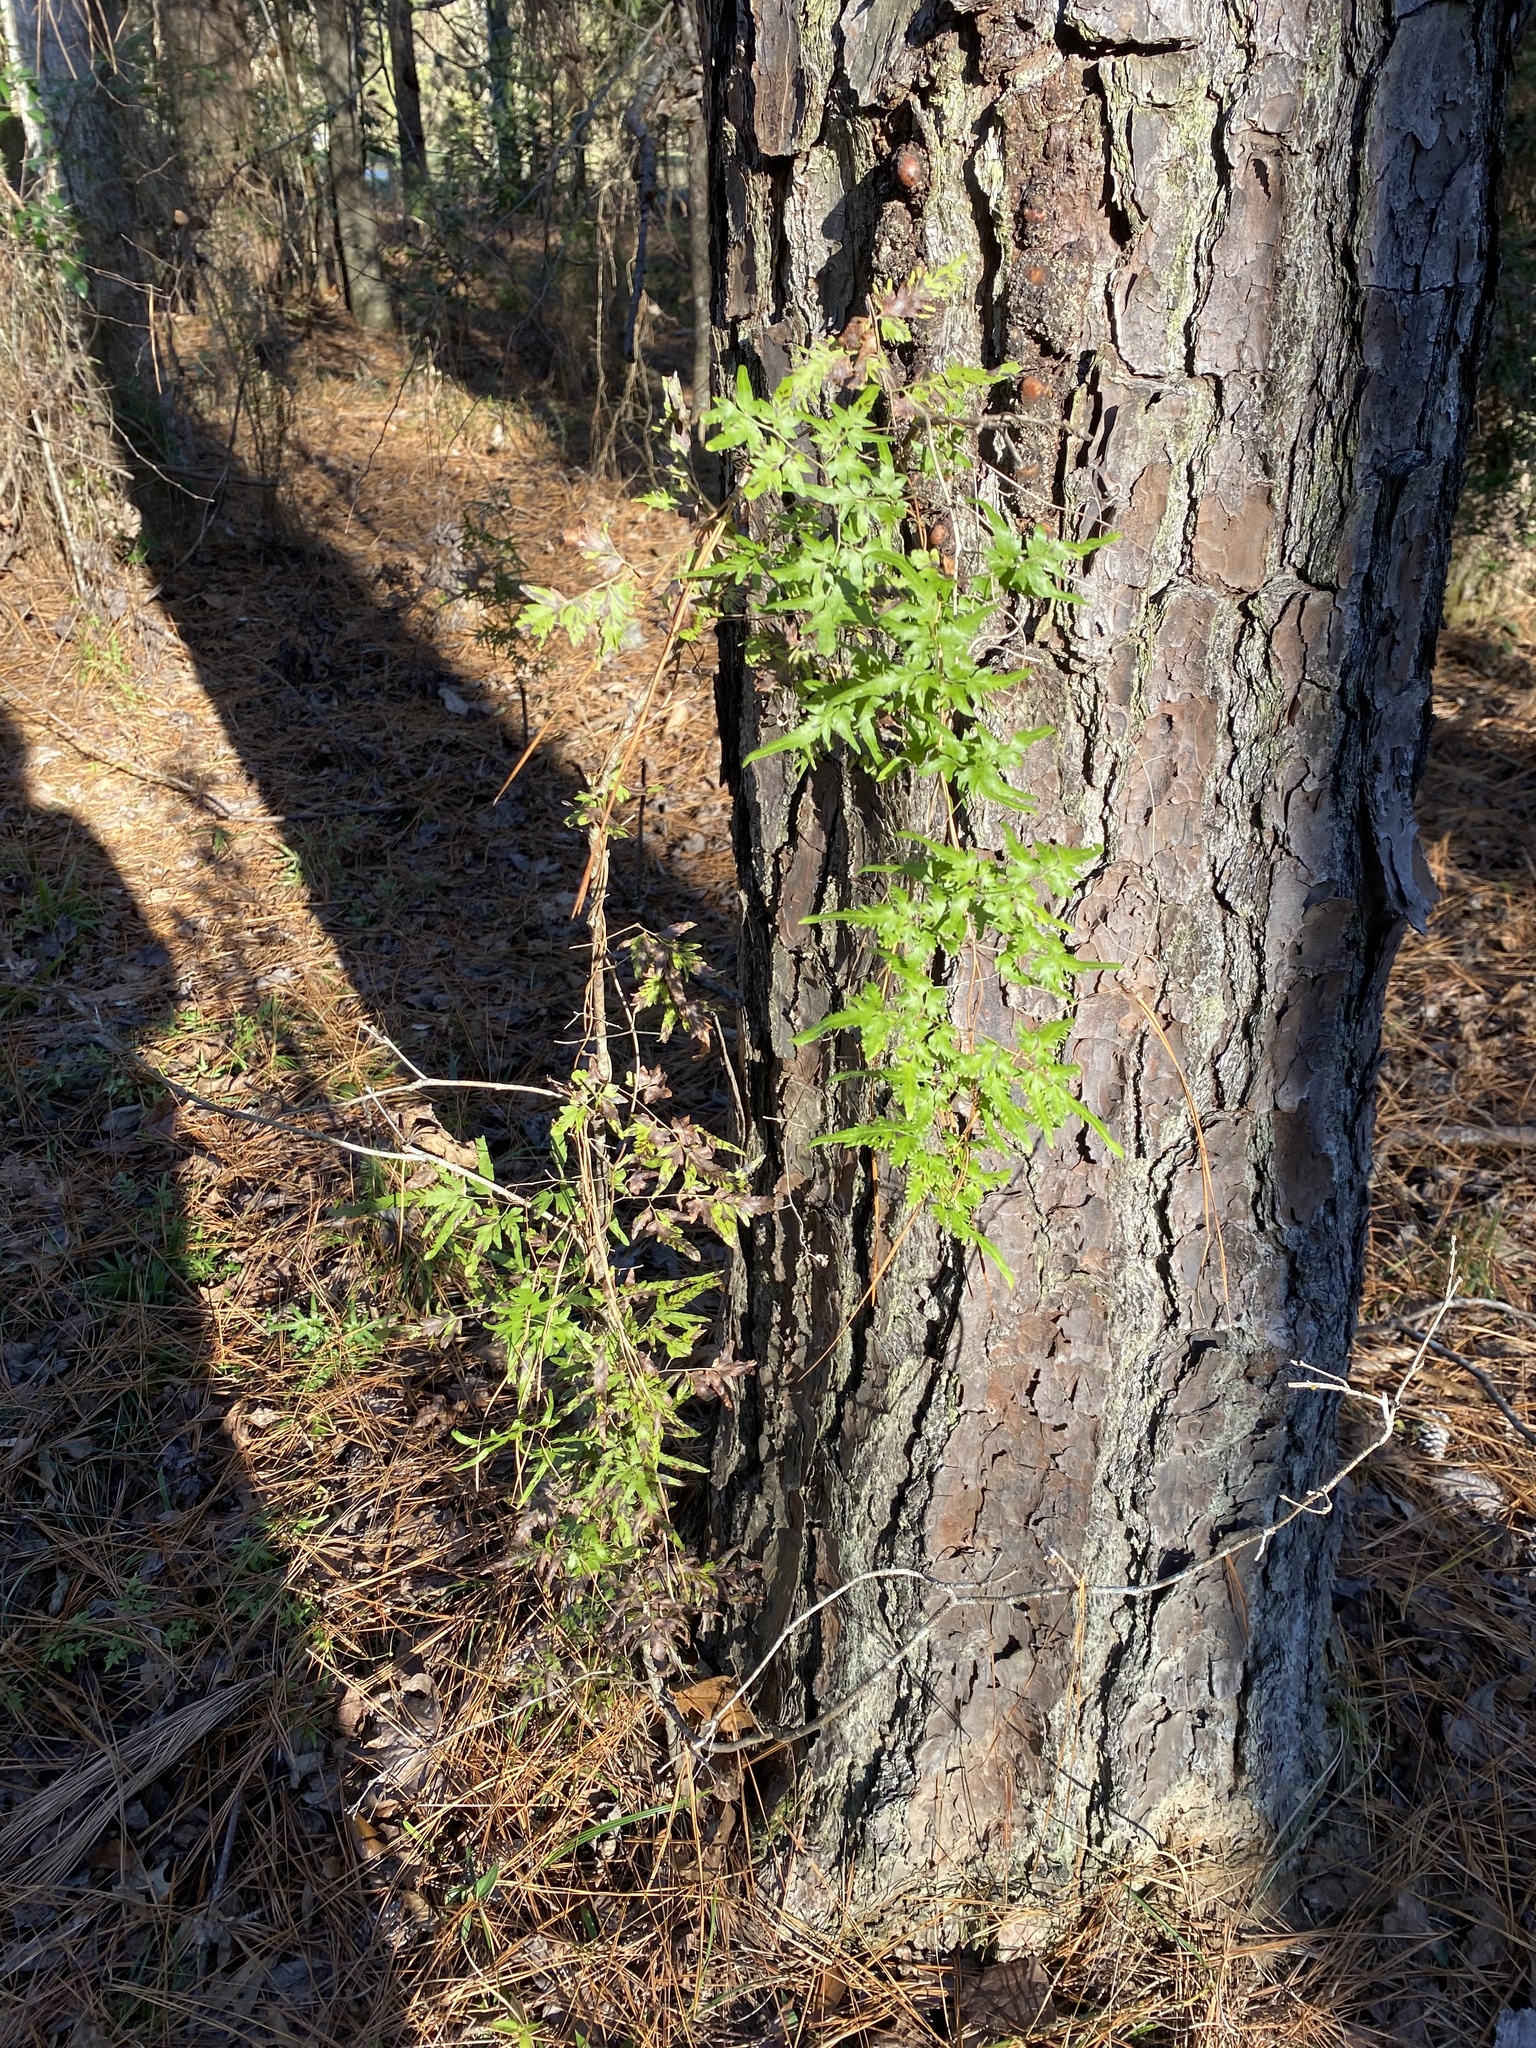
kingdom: Plantae
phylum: Tracheophyta
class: Polypodiopsida
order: Schizaeales
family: Lygodiaceae
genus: Lygodium
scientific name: Lygodium japonicum
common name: Japanese climbing fern
